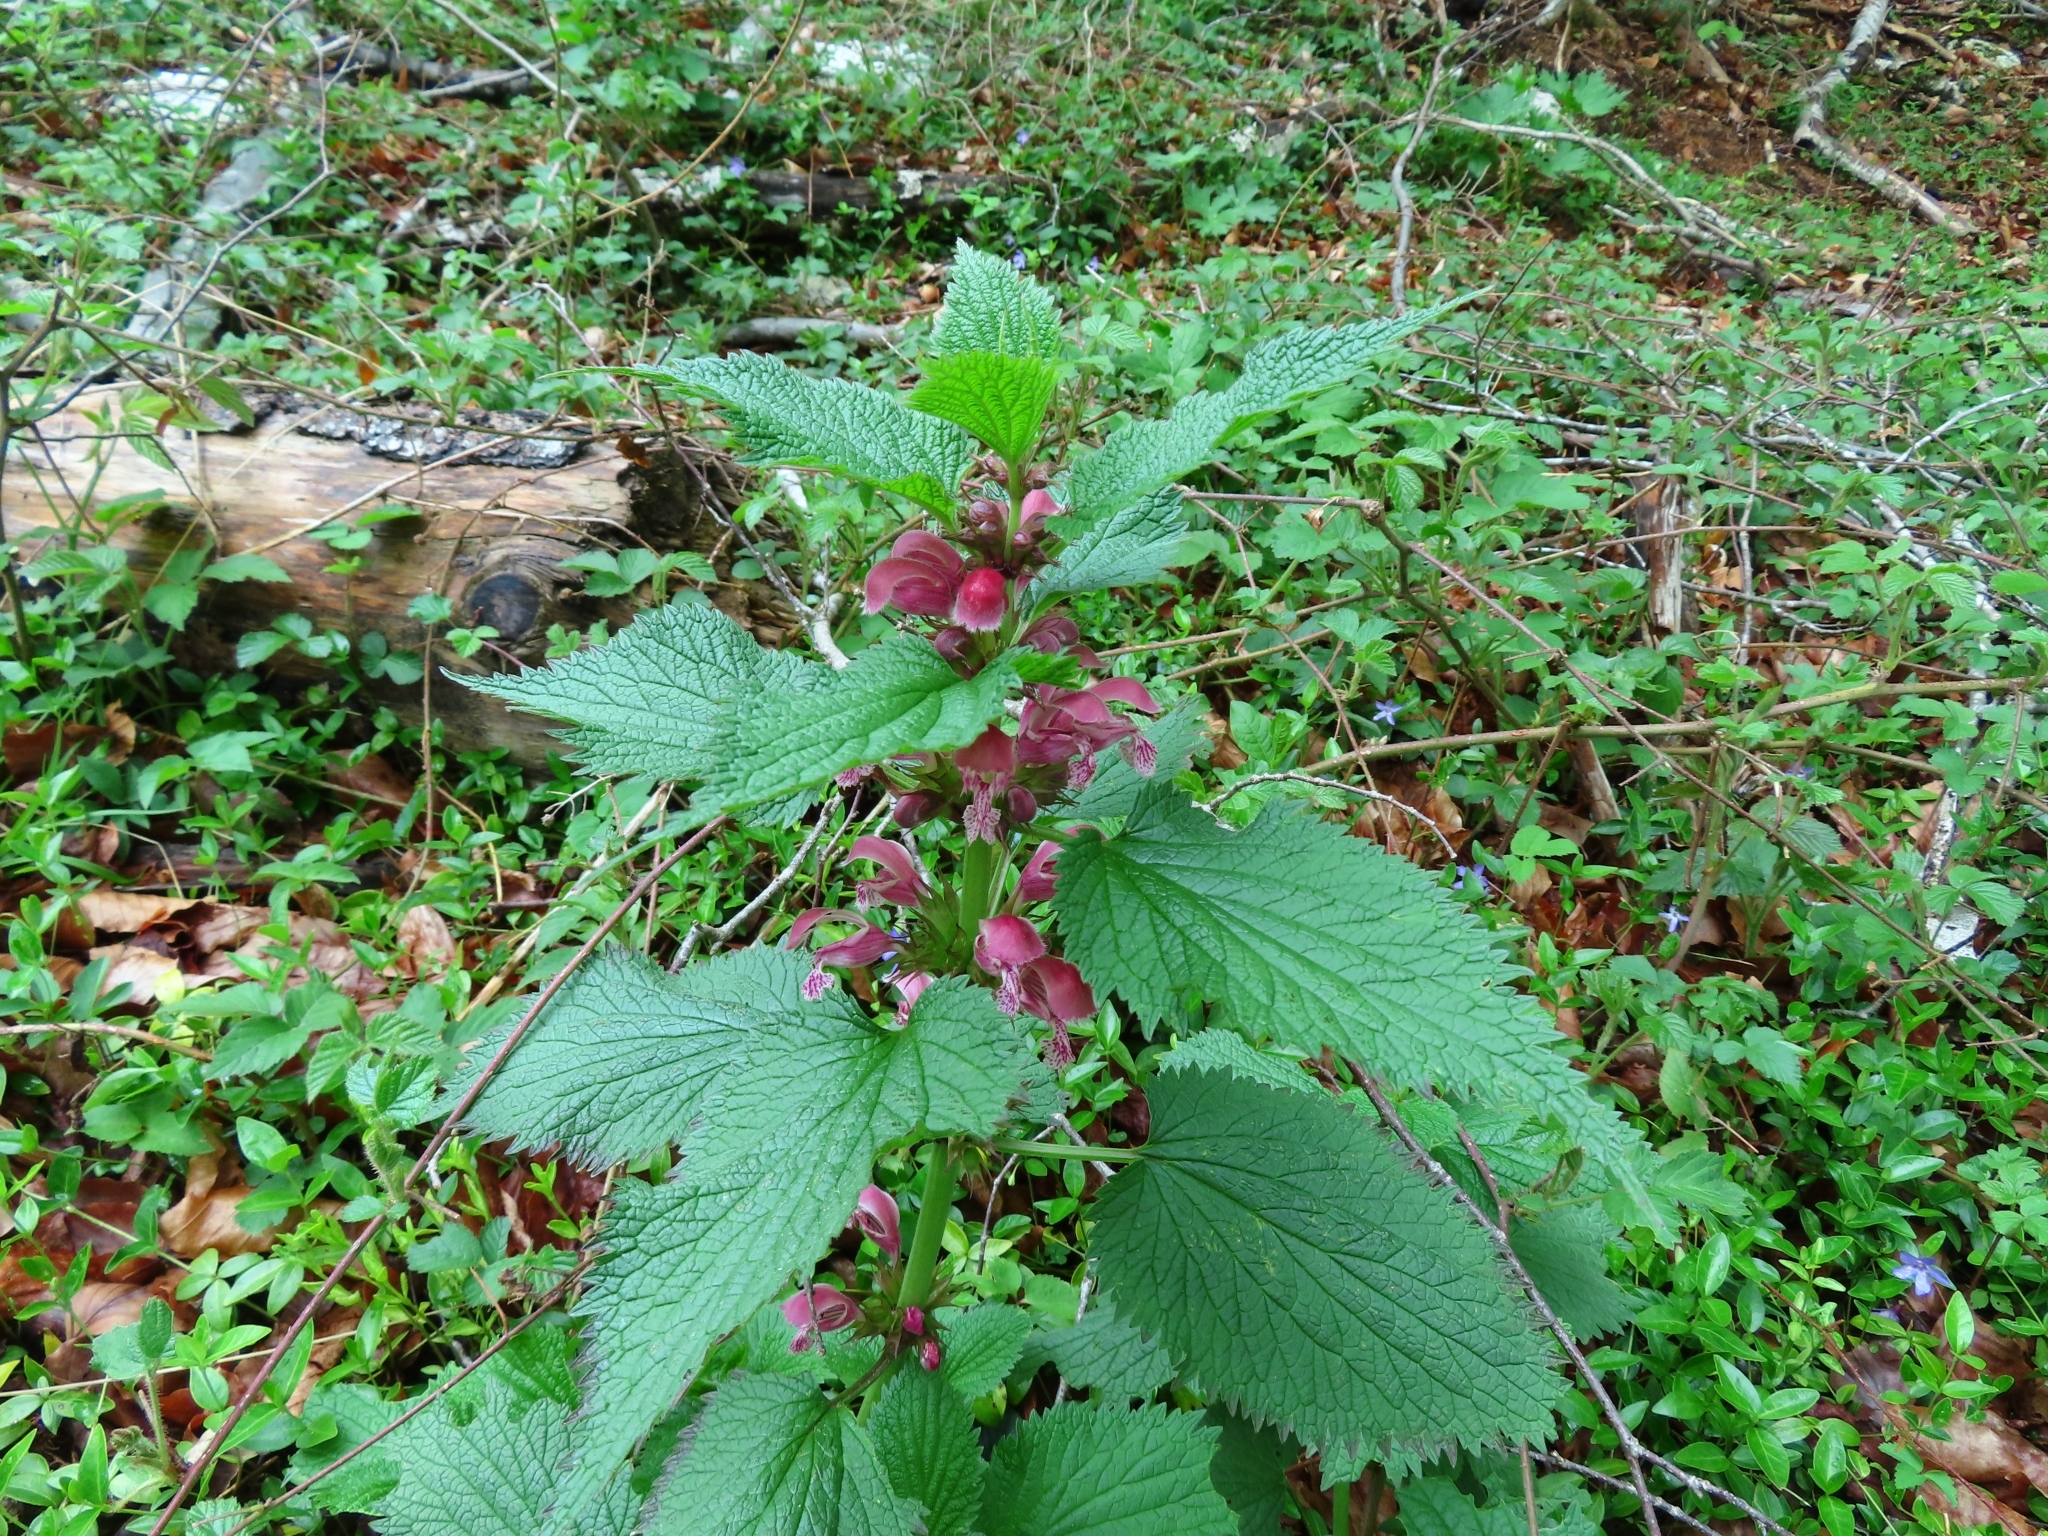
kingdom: Plantae
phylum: Tracheophyta
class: Magnoliopsida
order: Lamiales
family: Lamiaceae
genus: Lamium
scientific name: Lamium orvala
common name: Balm-leaved archangel
